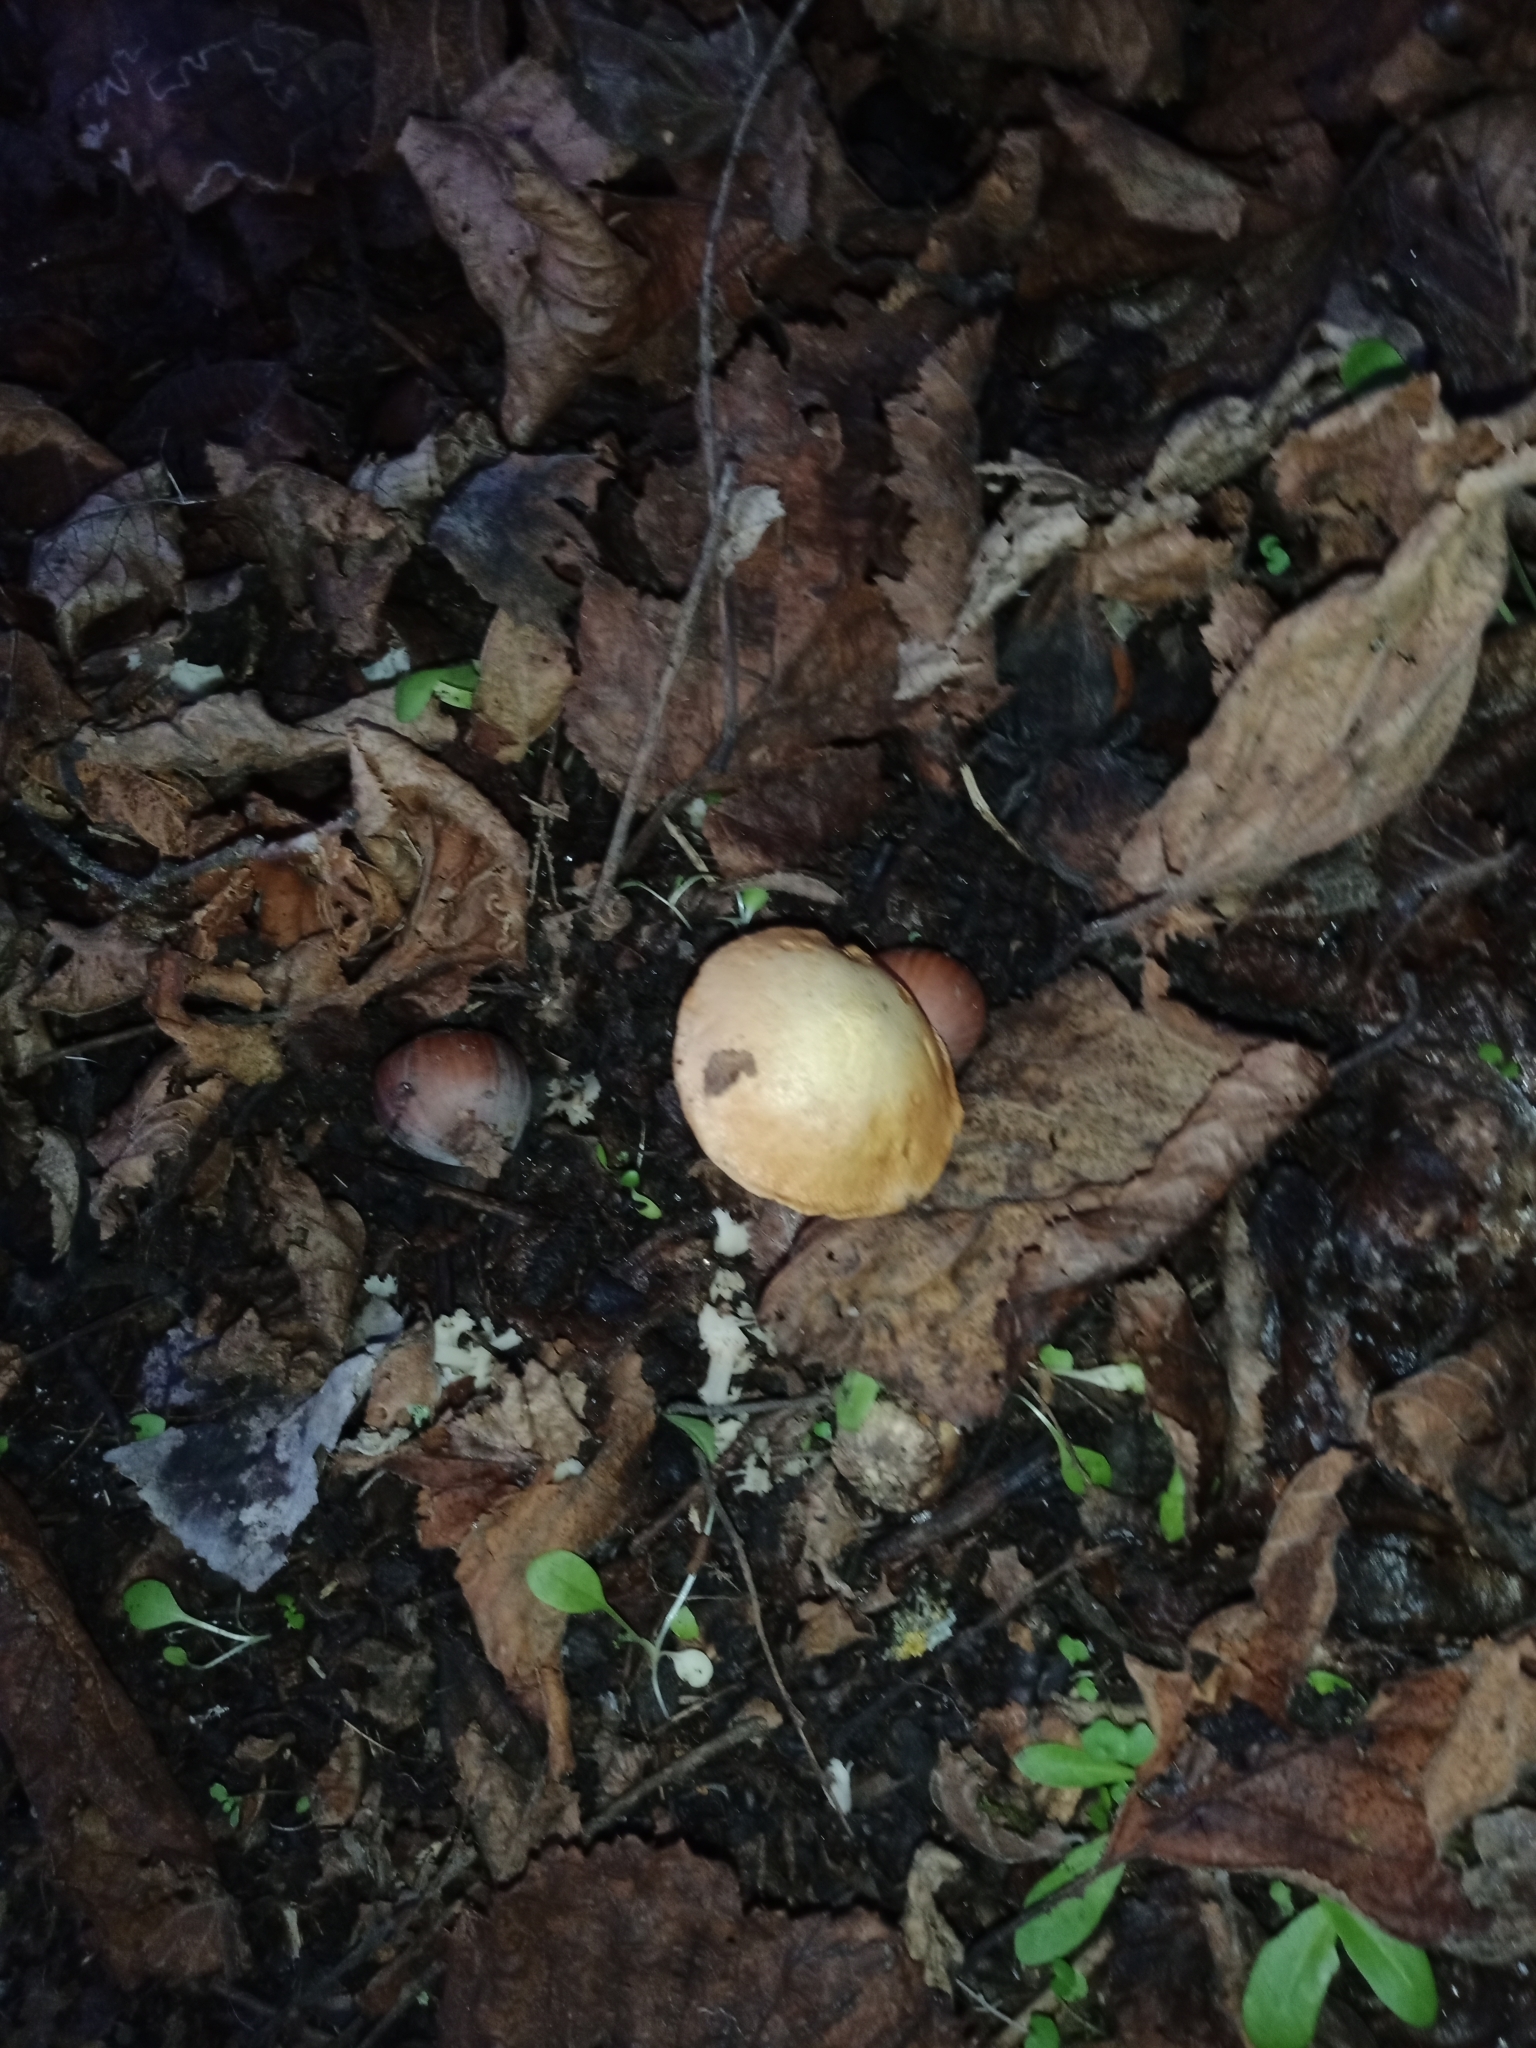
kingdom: Fungi
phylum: Basidiomycota
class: Agaricomycetes
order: Boletales
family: Boletaceae
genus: Chalciporus
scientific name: Chalciporus piperatus
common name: Peppery bolete
